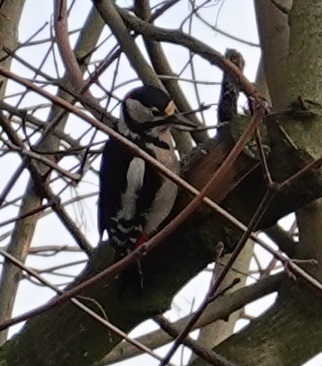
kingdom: Animalia
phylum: Chordata
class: Aves
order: Piciformes
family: Picidae
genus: Dendrocopos
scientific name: Dendrocopos major
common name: Great spotted woodpecker
